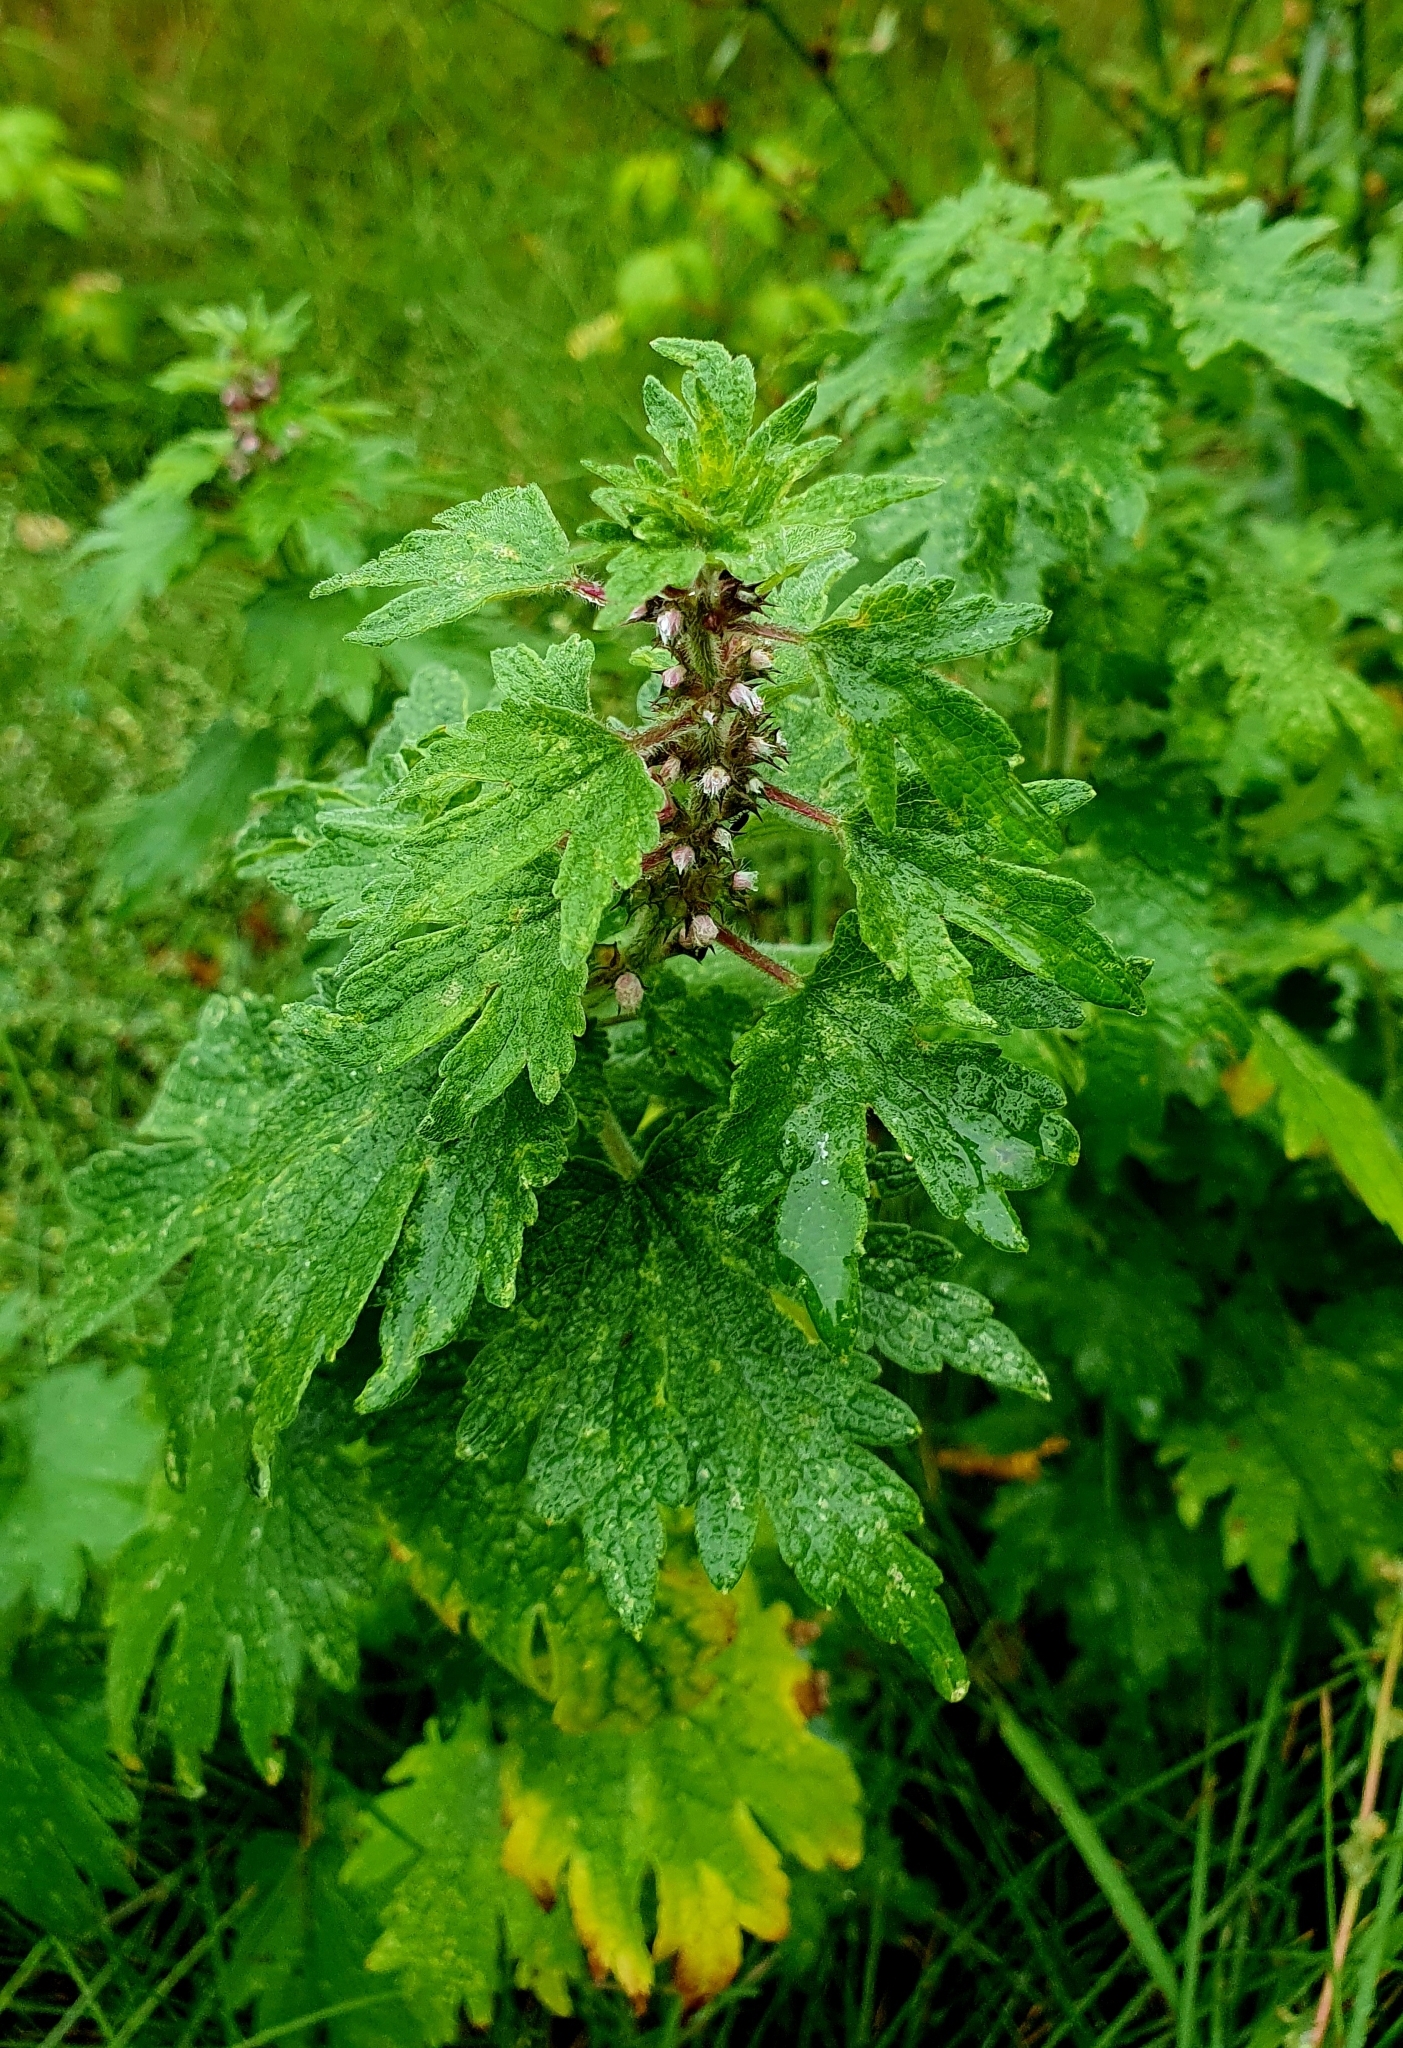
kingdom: Plantae
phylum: Tracheophyta
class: Magnoliopsida
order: Lamiales
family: Lamiaceae
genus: Leonurus
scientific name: Leonurus quinquelobatus
